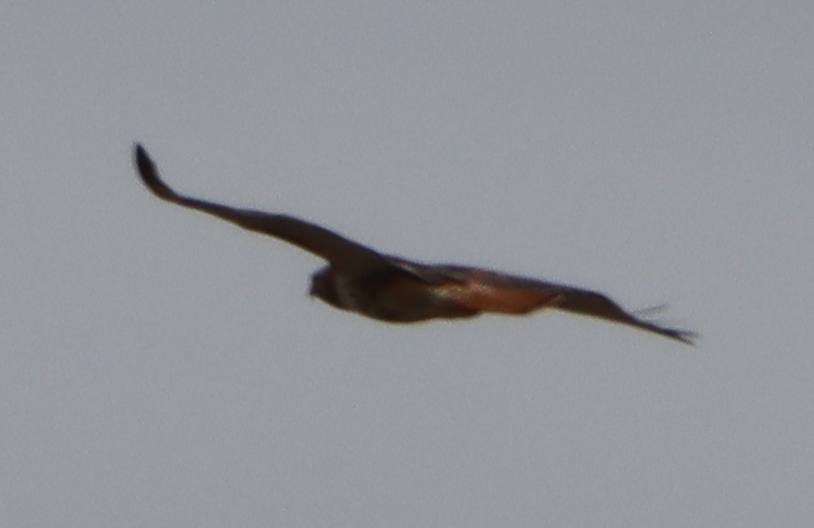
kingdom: Animalia
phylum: Chordata
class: Aves
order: Accipitriformes
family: Accipitridae
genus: Buteo
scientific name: Buteo jamaicensis
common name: Red-tailed hawk
